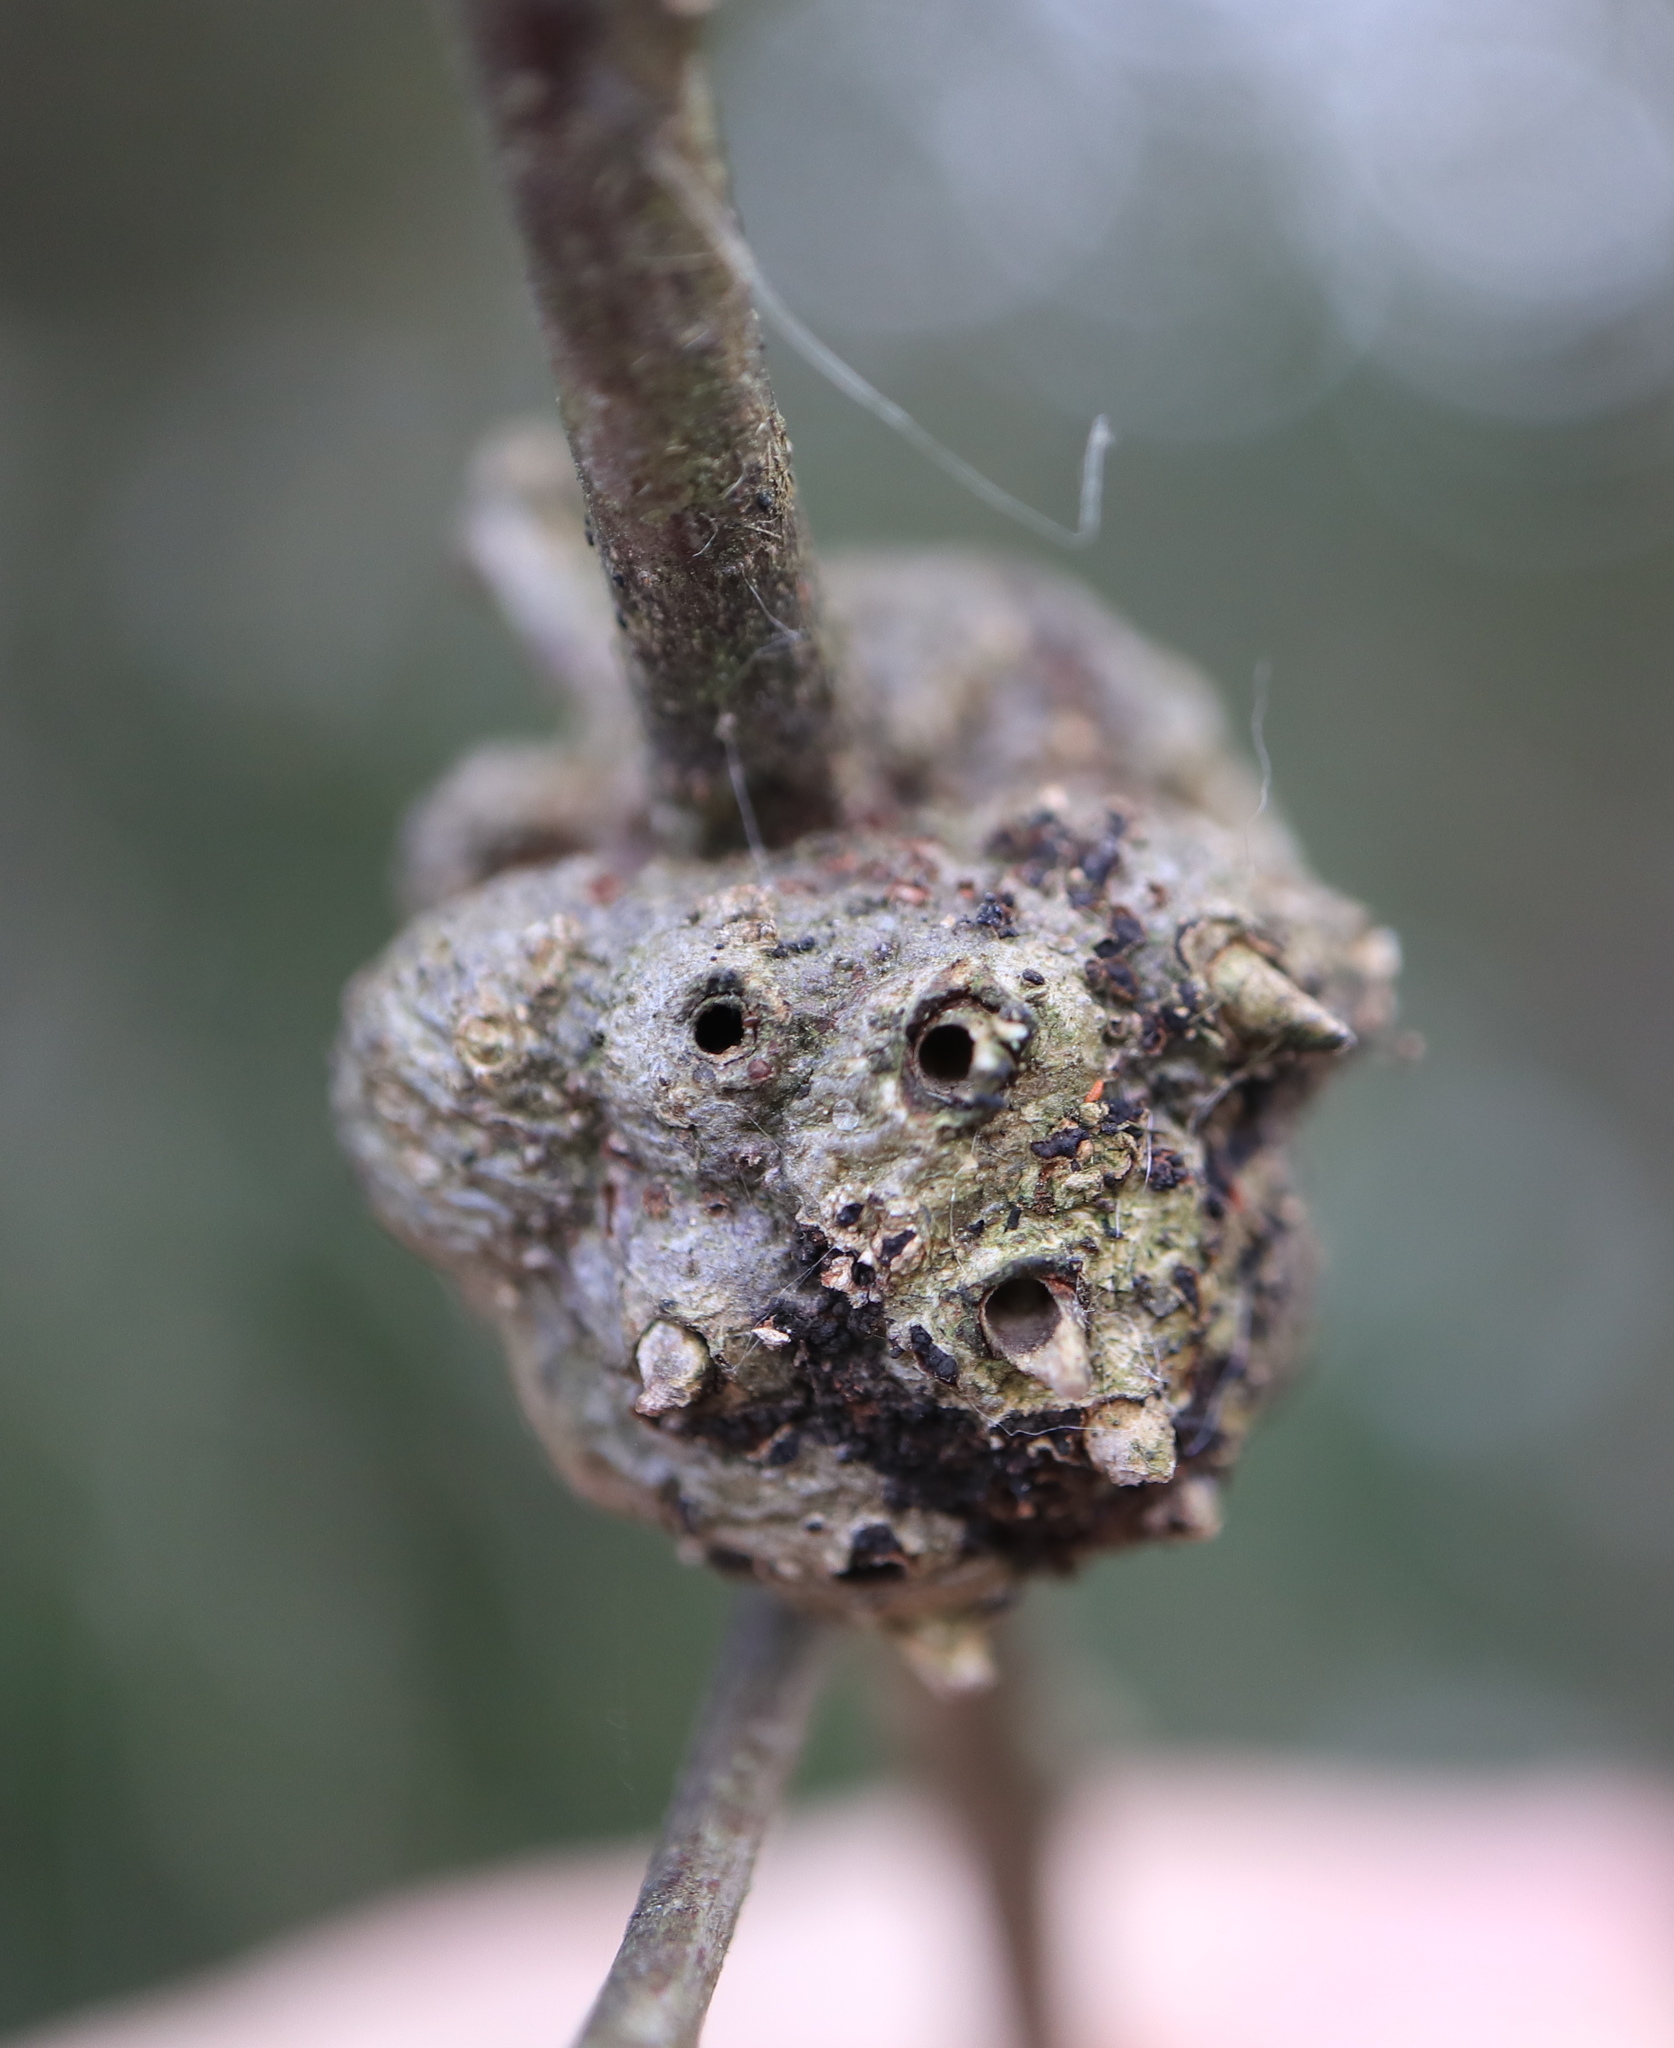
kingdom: Animalia
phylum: Arthropoda
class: Insecta
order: Hymenoptera
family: Cynipidae
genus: Callirhytis
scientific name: Callirhytis
